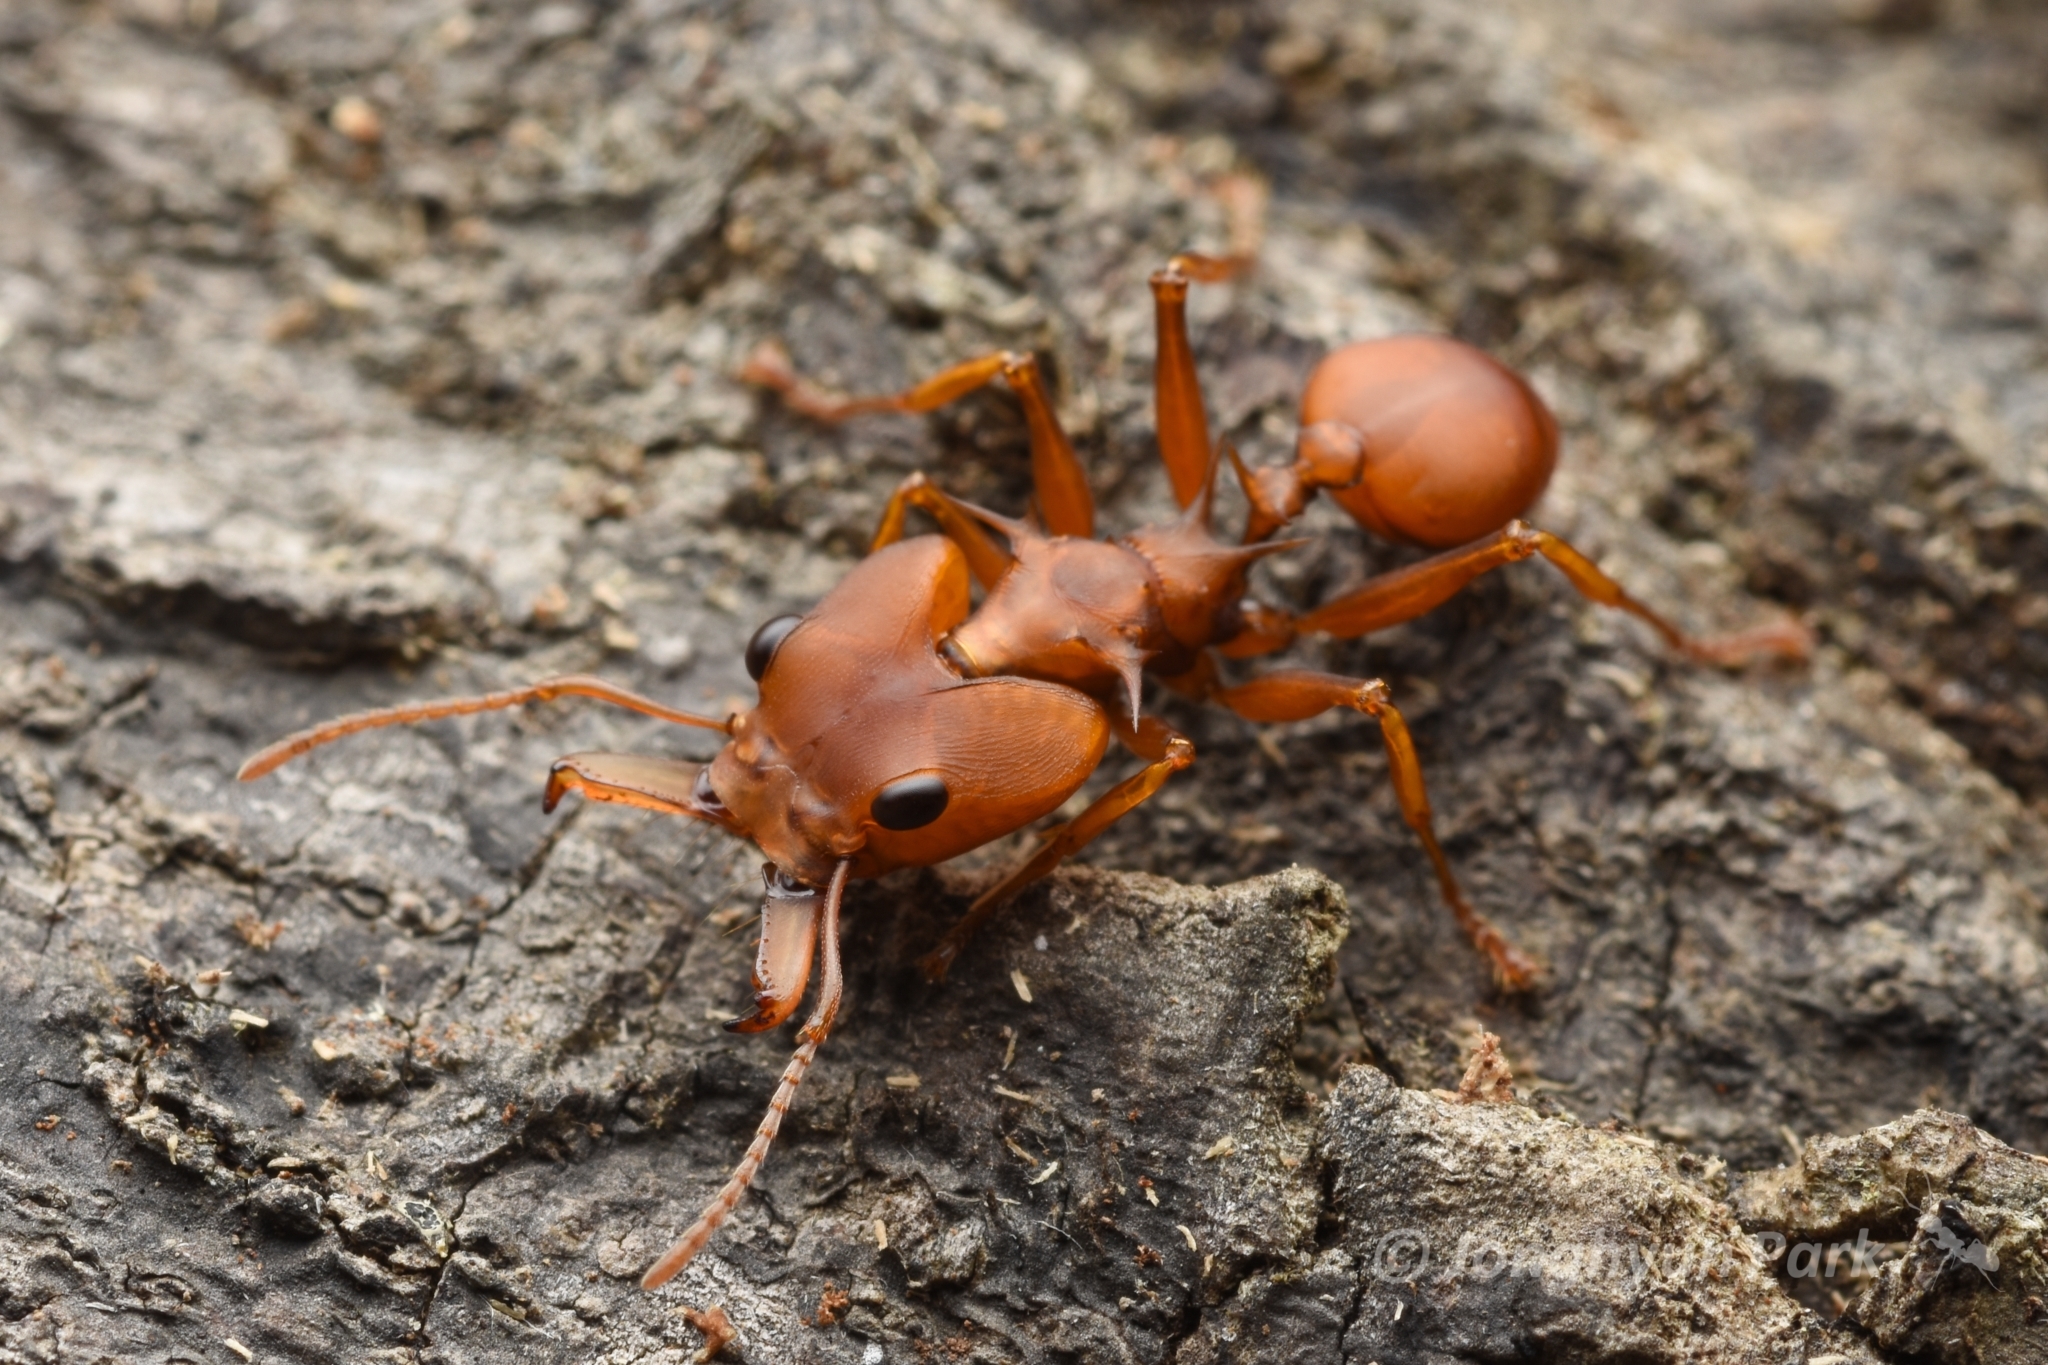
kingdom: Animalia
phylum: Arthropoda
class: Insecta
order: Hymenoptera
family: Formicidae
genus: Daceton
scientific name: Daceton armigerum
